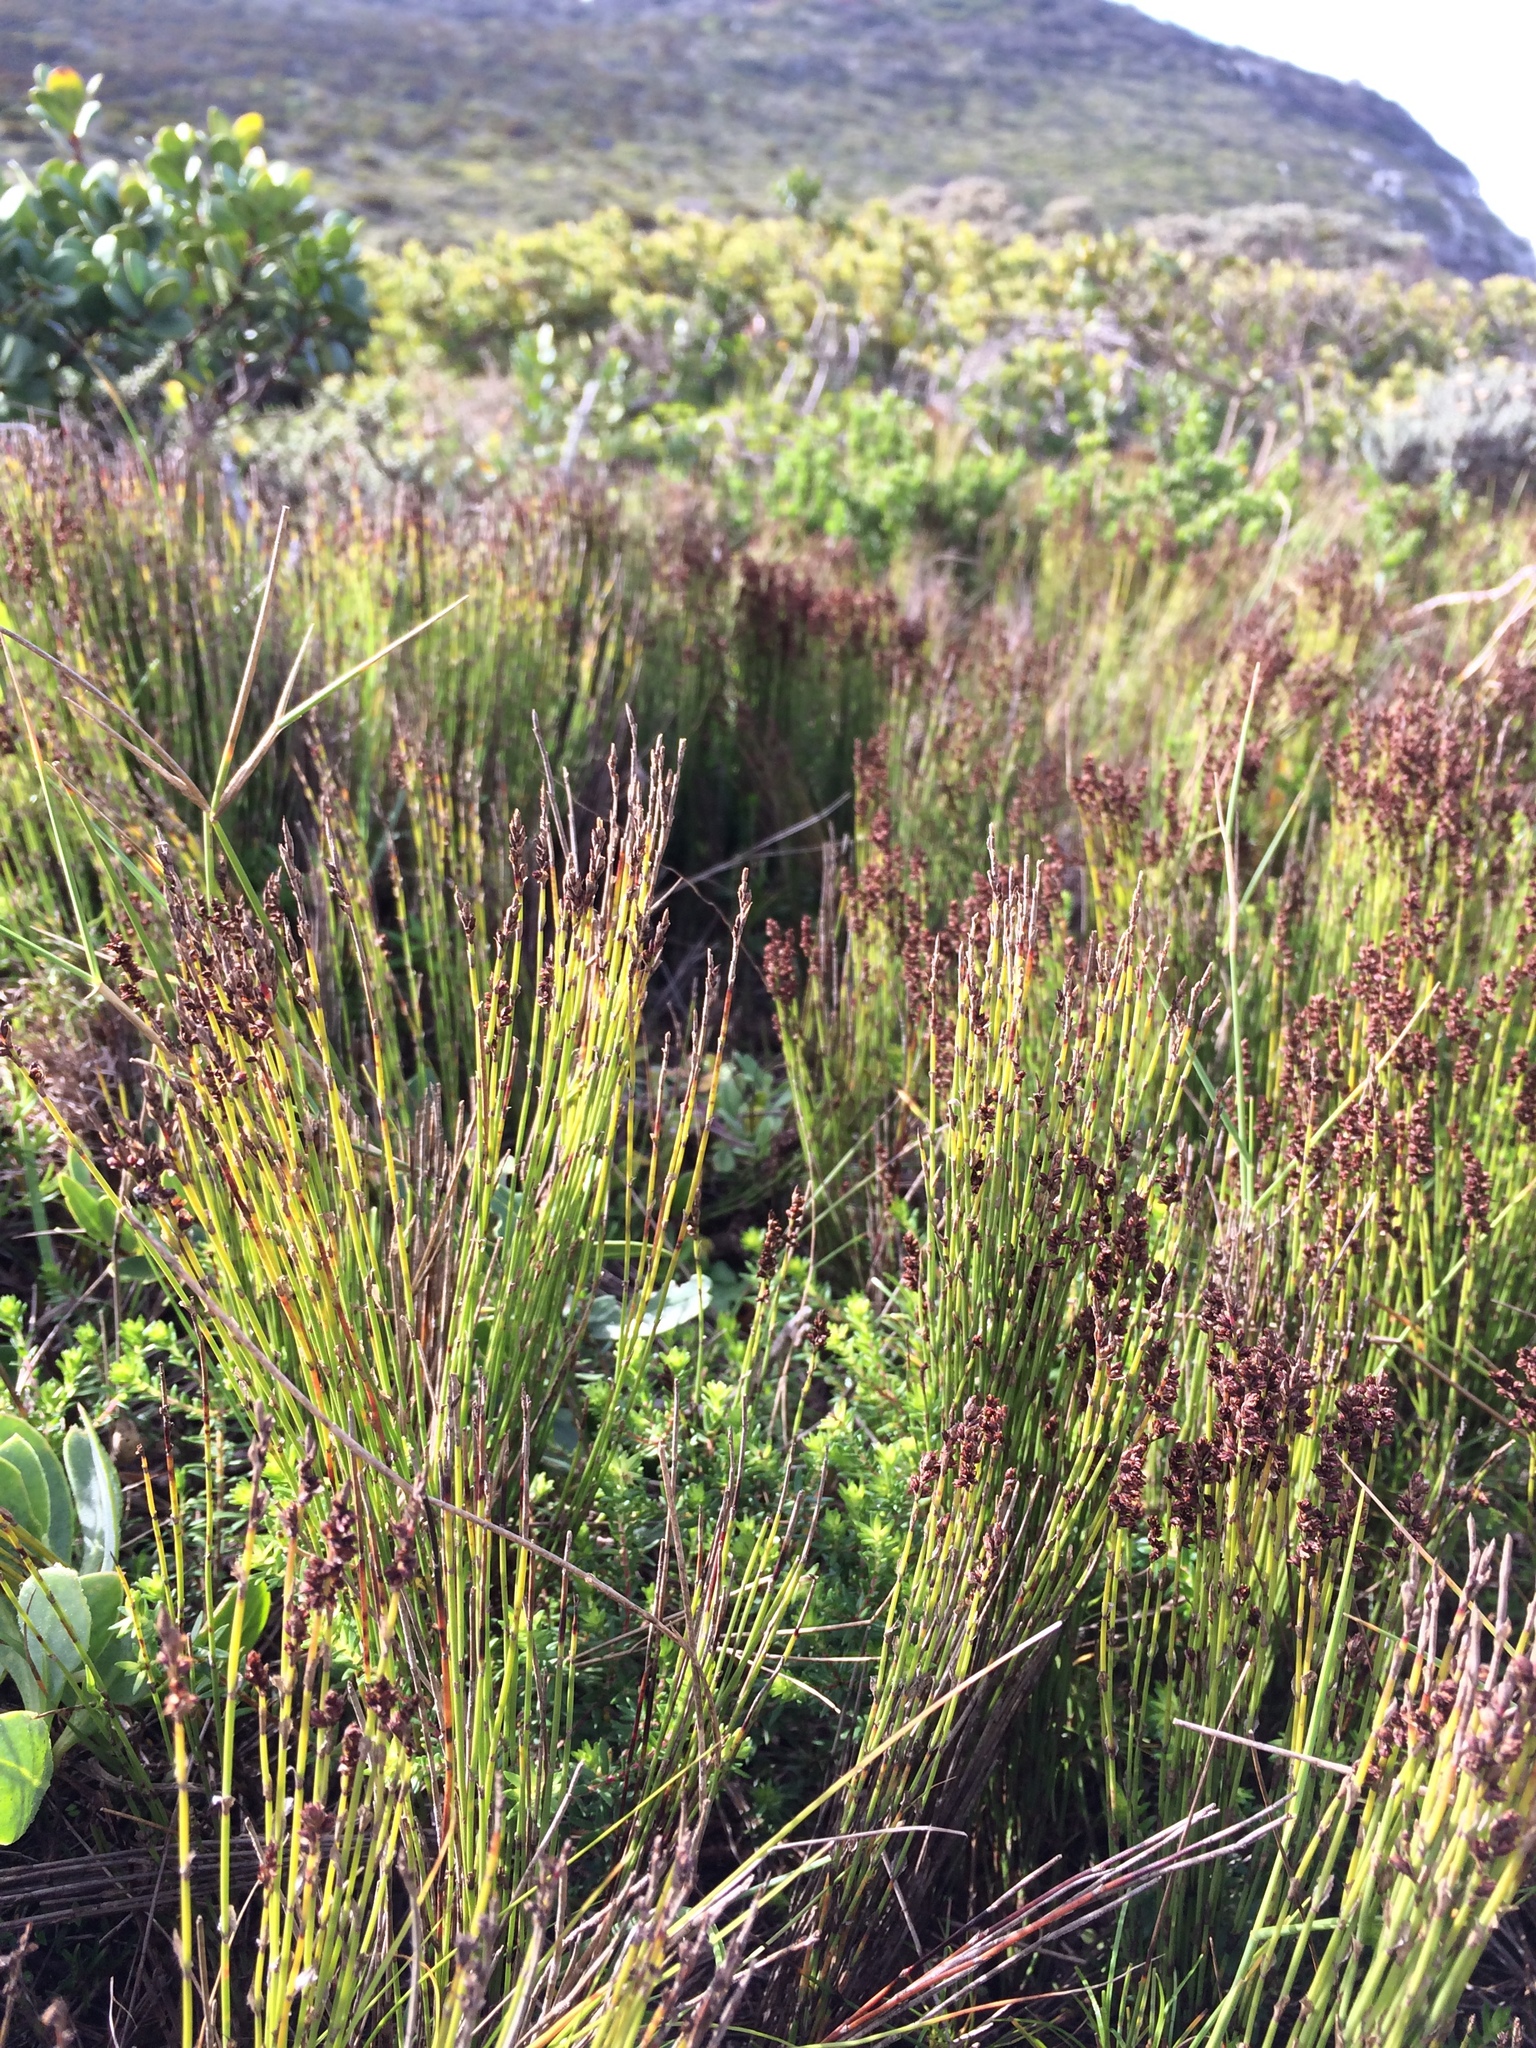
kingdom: Plantae
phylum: Tracheophyta
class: Liliopsida
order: Poales
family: Restionaceae
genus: Elegia
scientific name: Elegia microcarpa
